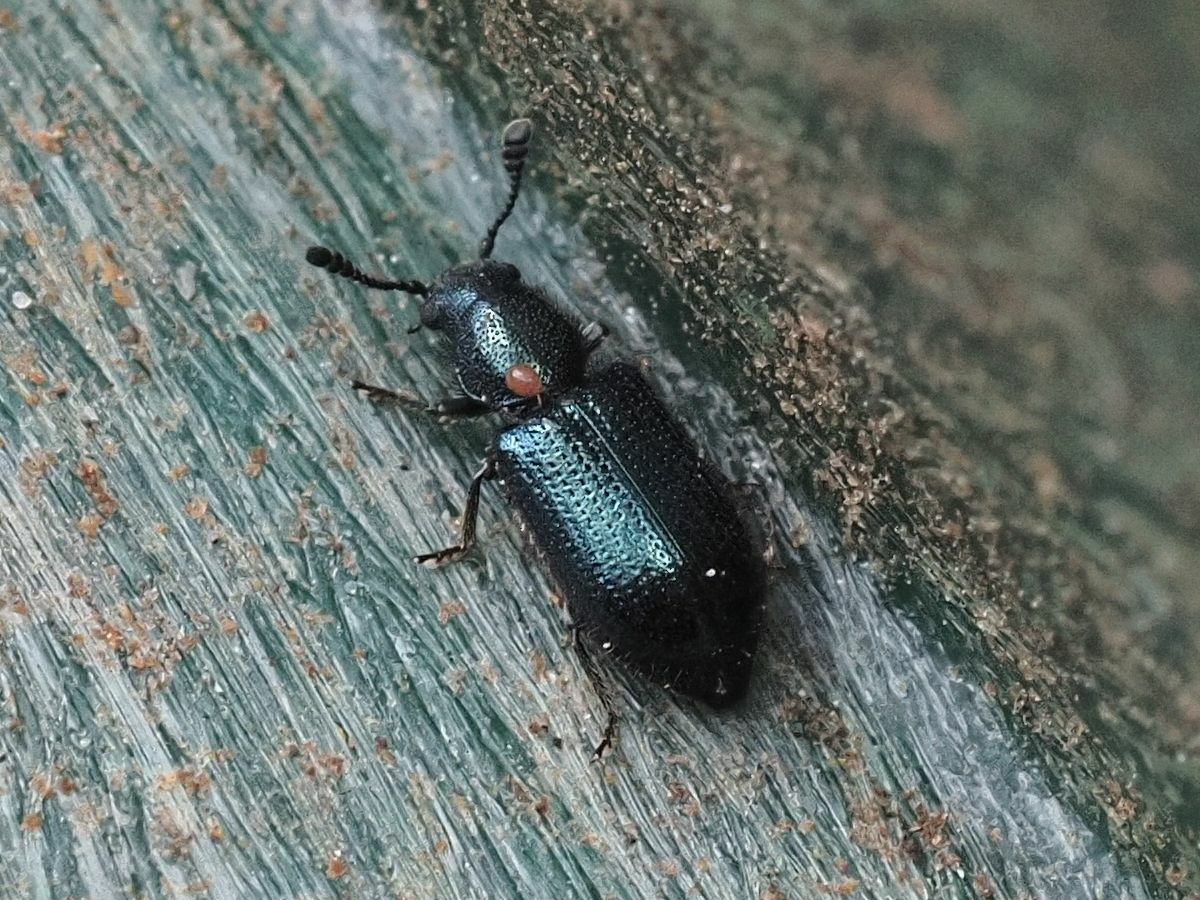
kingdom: Animalia
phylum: Arthropoda
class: Insecta
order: Coleoptera
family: Cleridae
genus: Necrobia
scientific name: Necrobia violacea
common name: Violet checkered beetle
